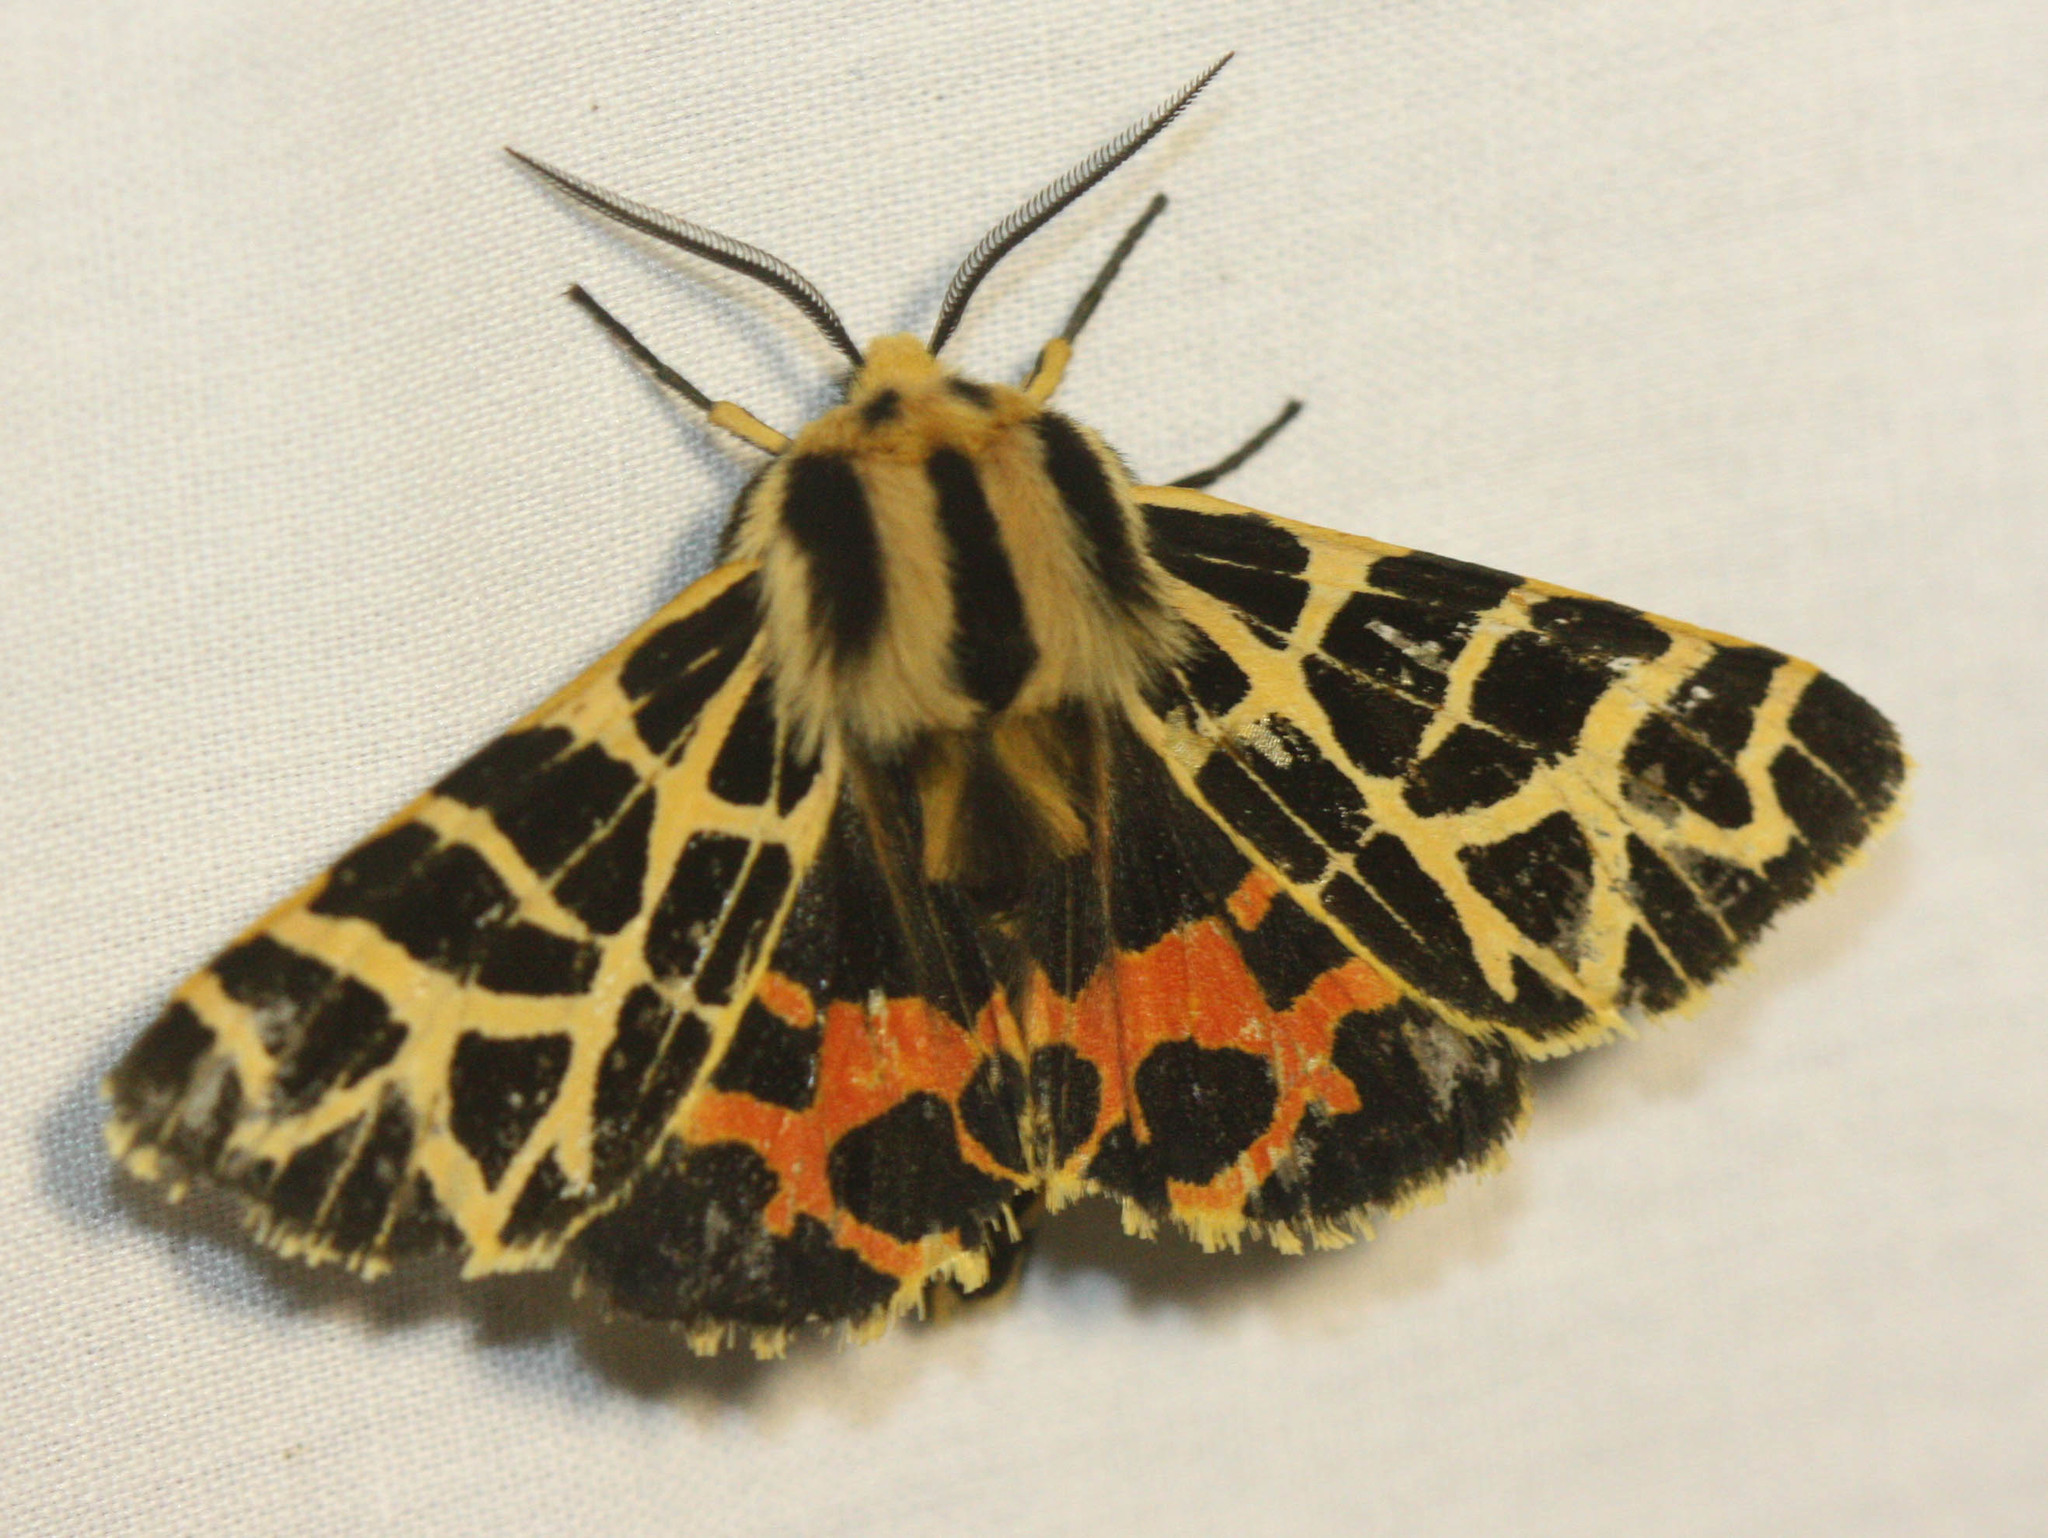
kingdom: Animalia
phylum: Arthropoda
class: Insecta
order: Lepidoptera
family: Erebidae
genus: Apantesis
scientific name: Apantesis
